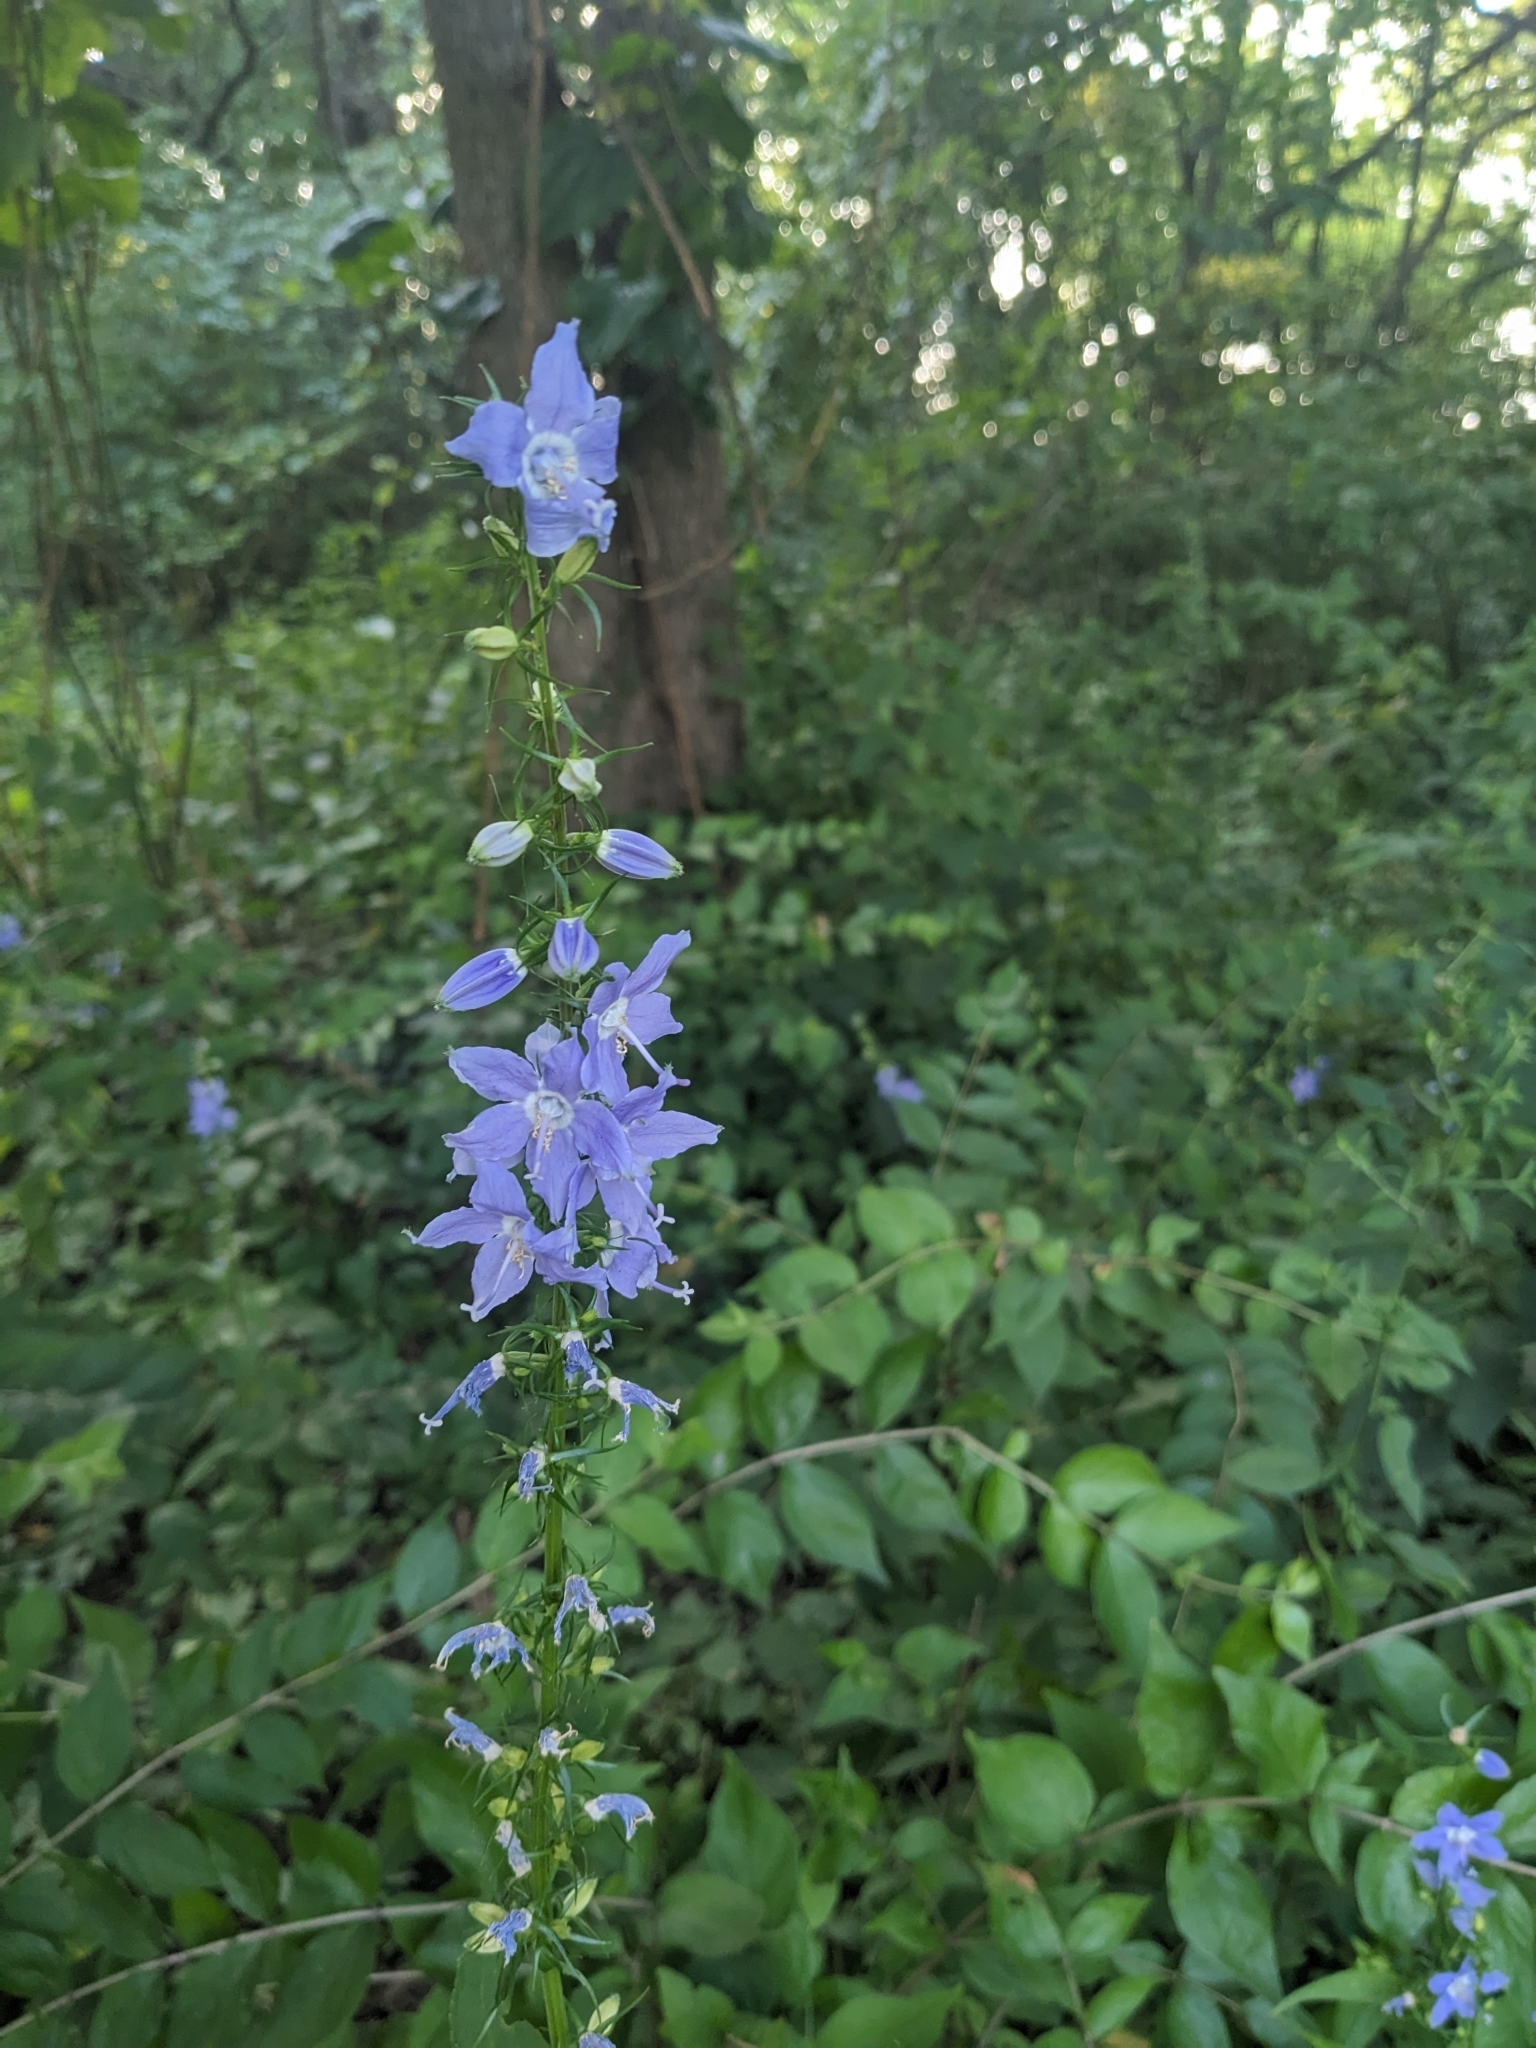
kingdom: Plantae
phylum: Tracheophyta
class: Magnoliopsida
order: Asterales
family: Campanulaceae
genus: Campanulastrum
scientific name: Campanulastrum americanum
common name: American bellflower
